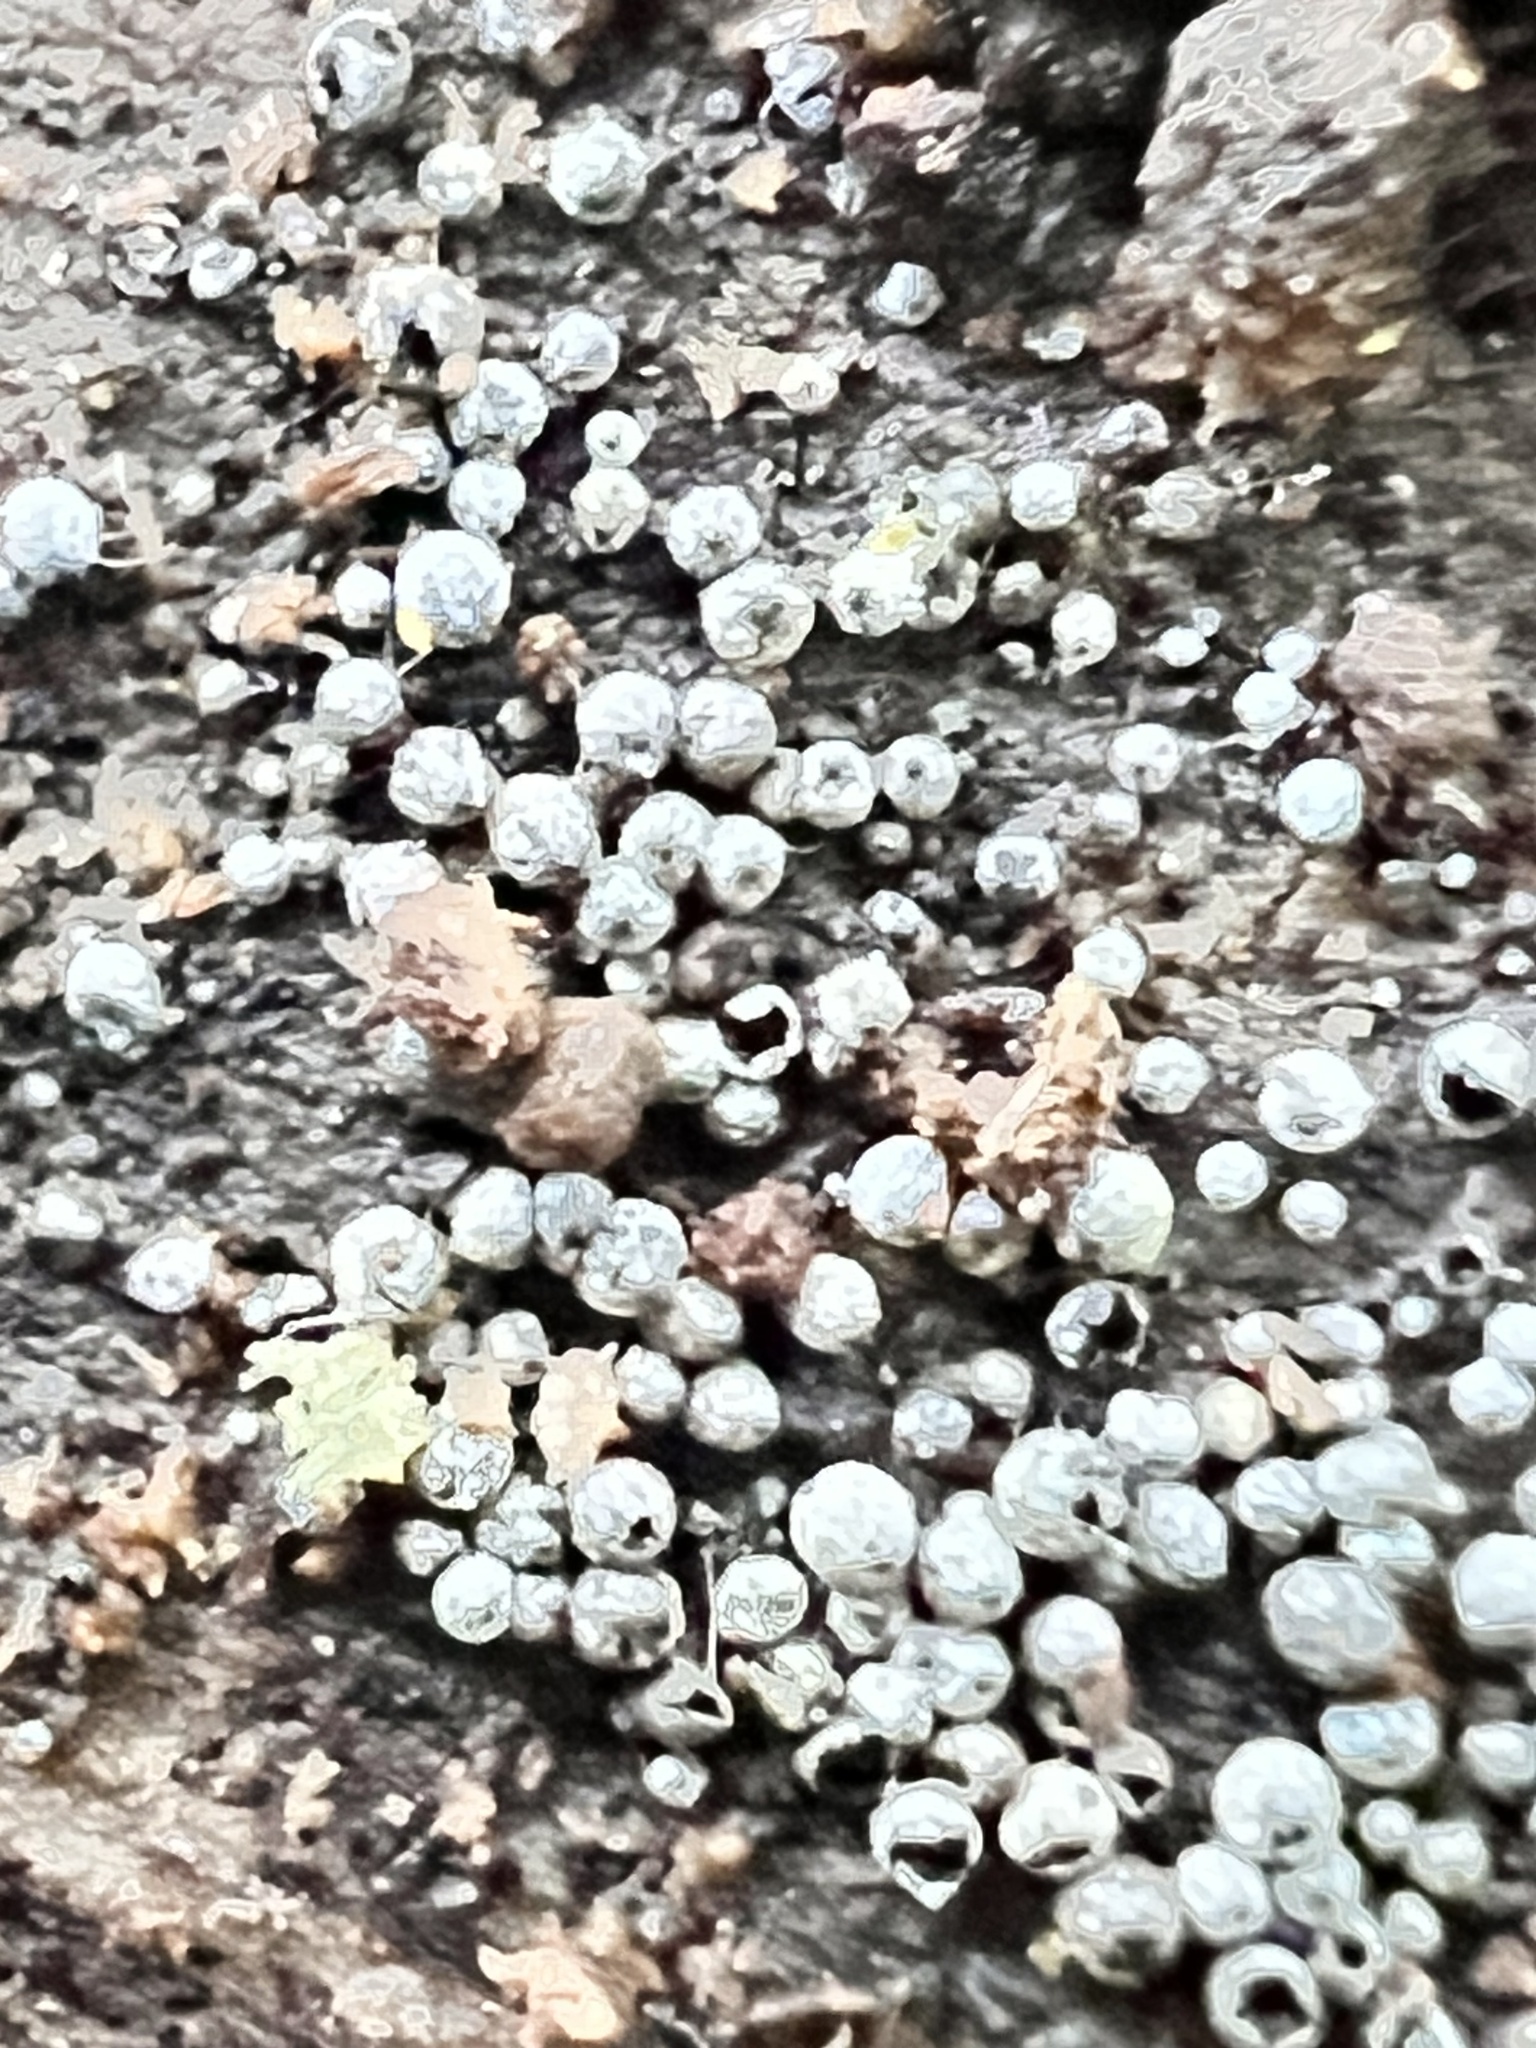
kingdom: Fungi
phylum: Ascomycota
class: Sordariomycetes
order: Sordariales
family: Lasiosphaeriaceae
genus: Lasiosphaeria
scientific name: Lasiosphaeria ovina
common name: Woolly woodwart
